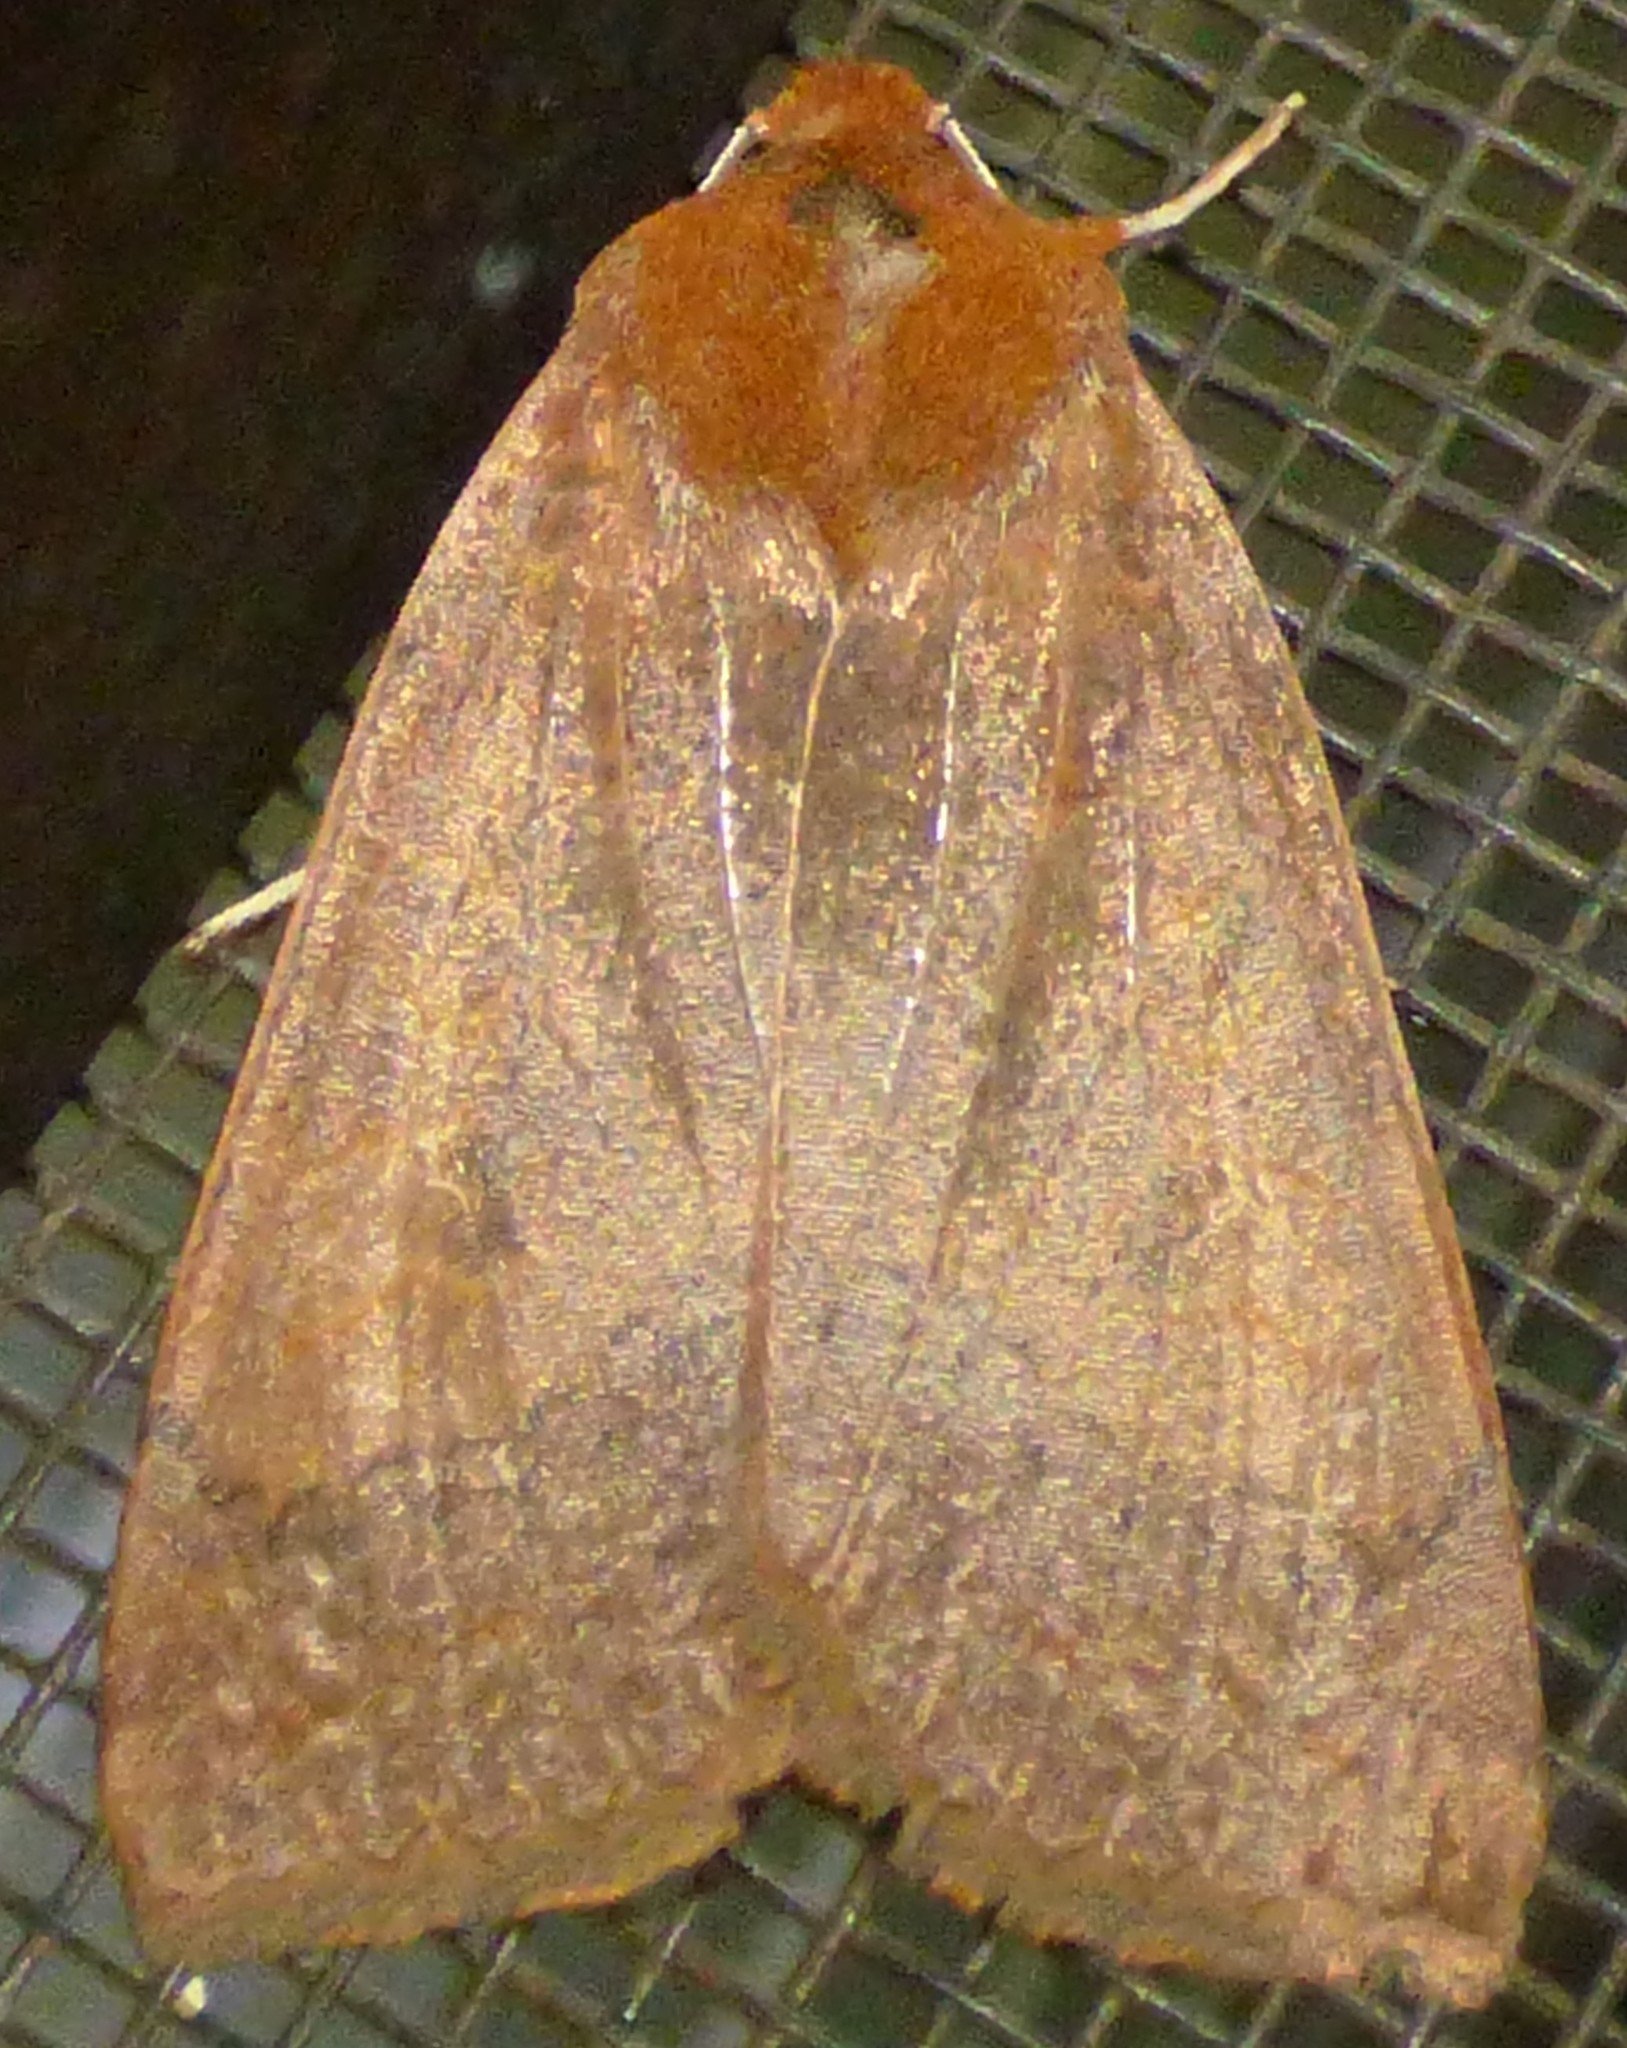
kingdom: Animalia
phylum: Arthropoda
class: Insecta
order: Lepidoptera
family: Noctuidae
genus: Metaxaglaea
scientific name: Metaxaglaea viatica
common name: Roadside sallow
